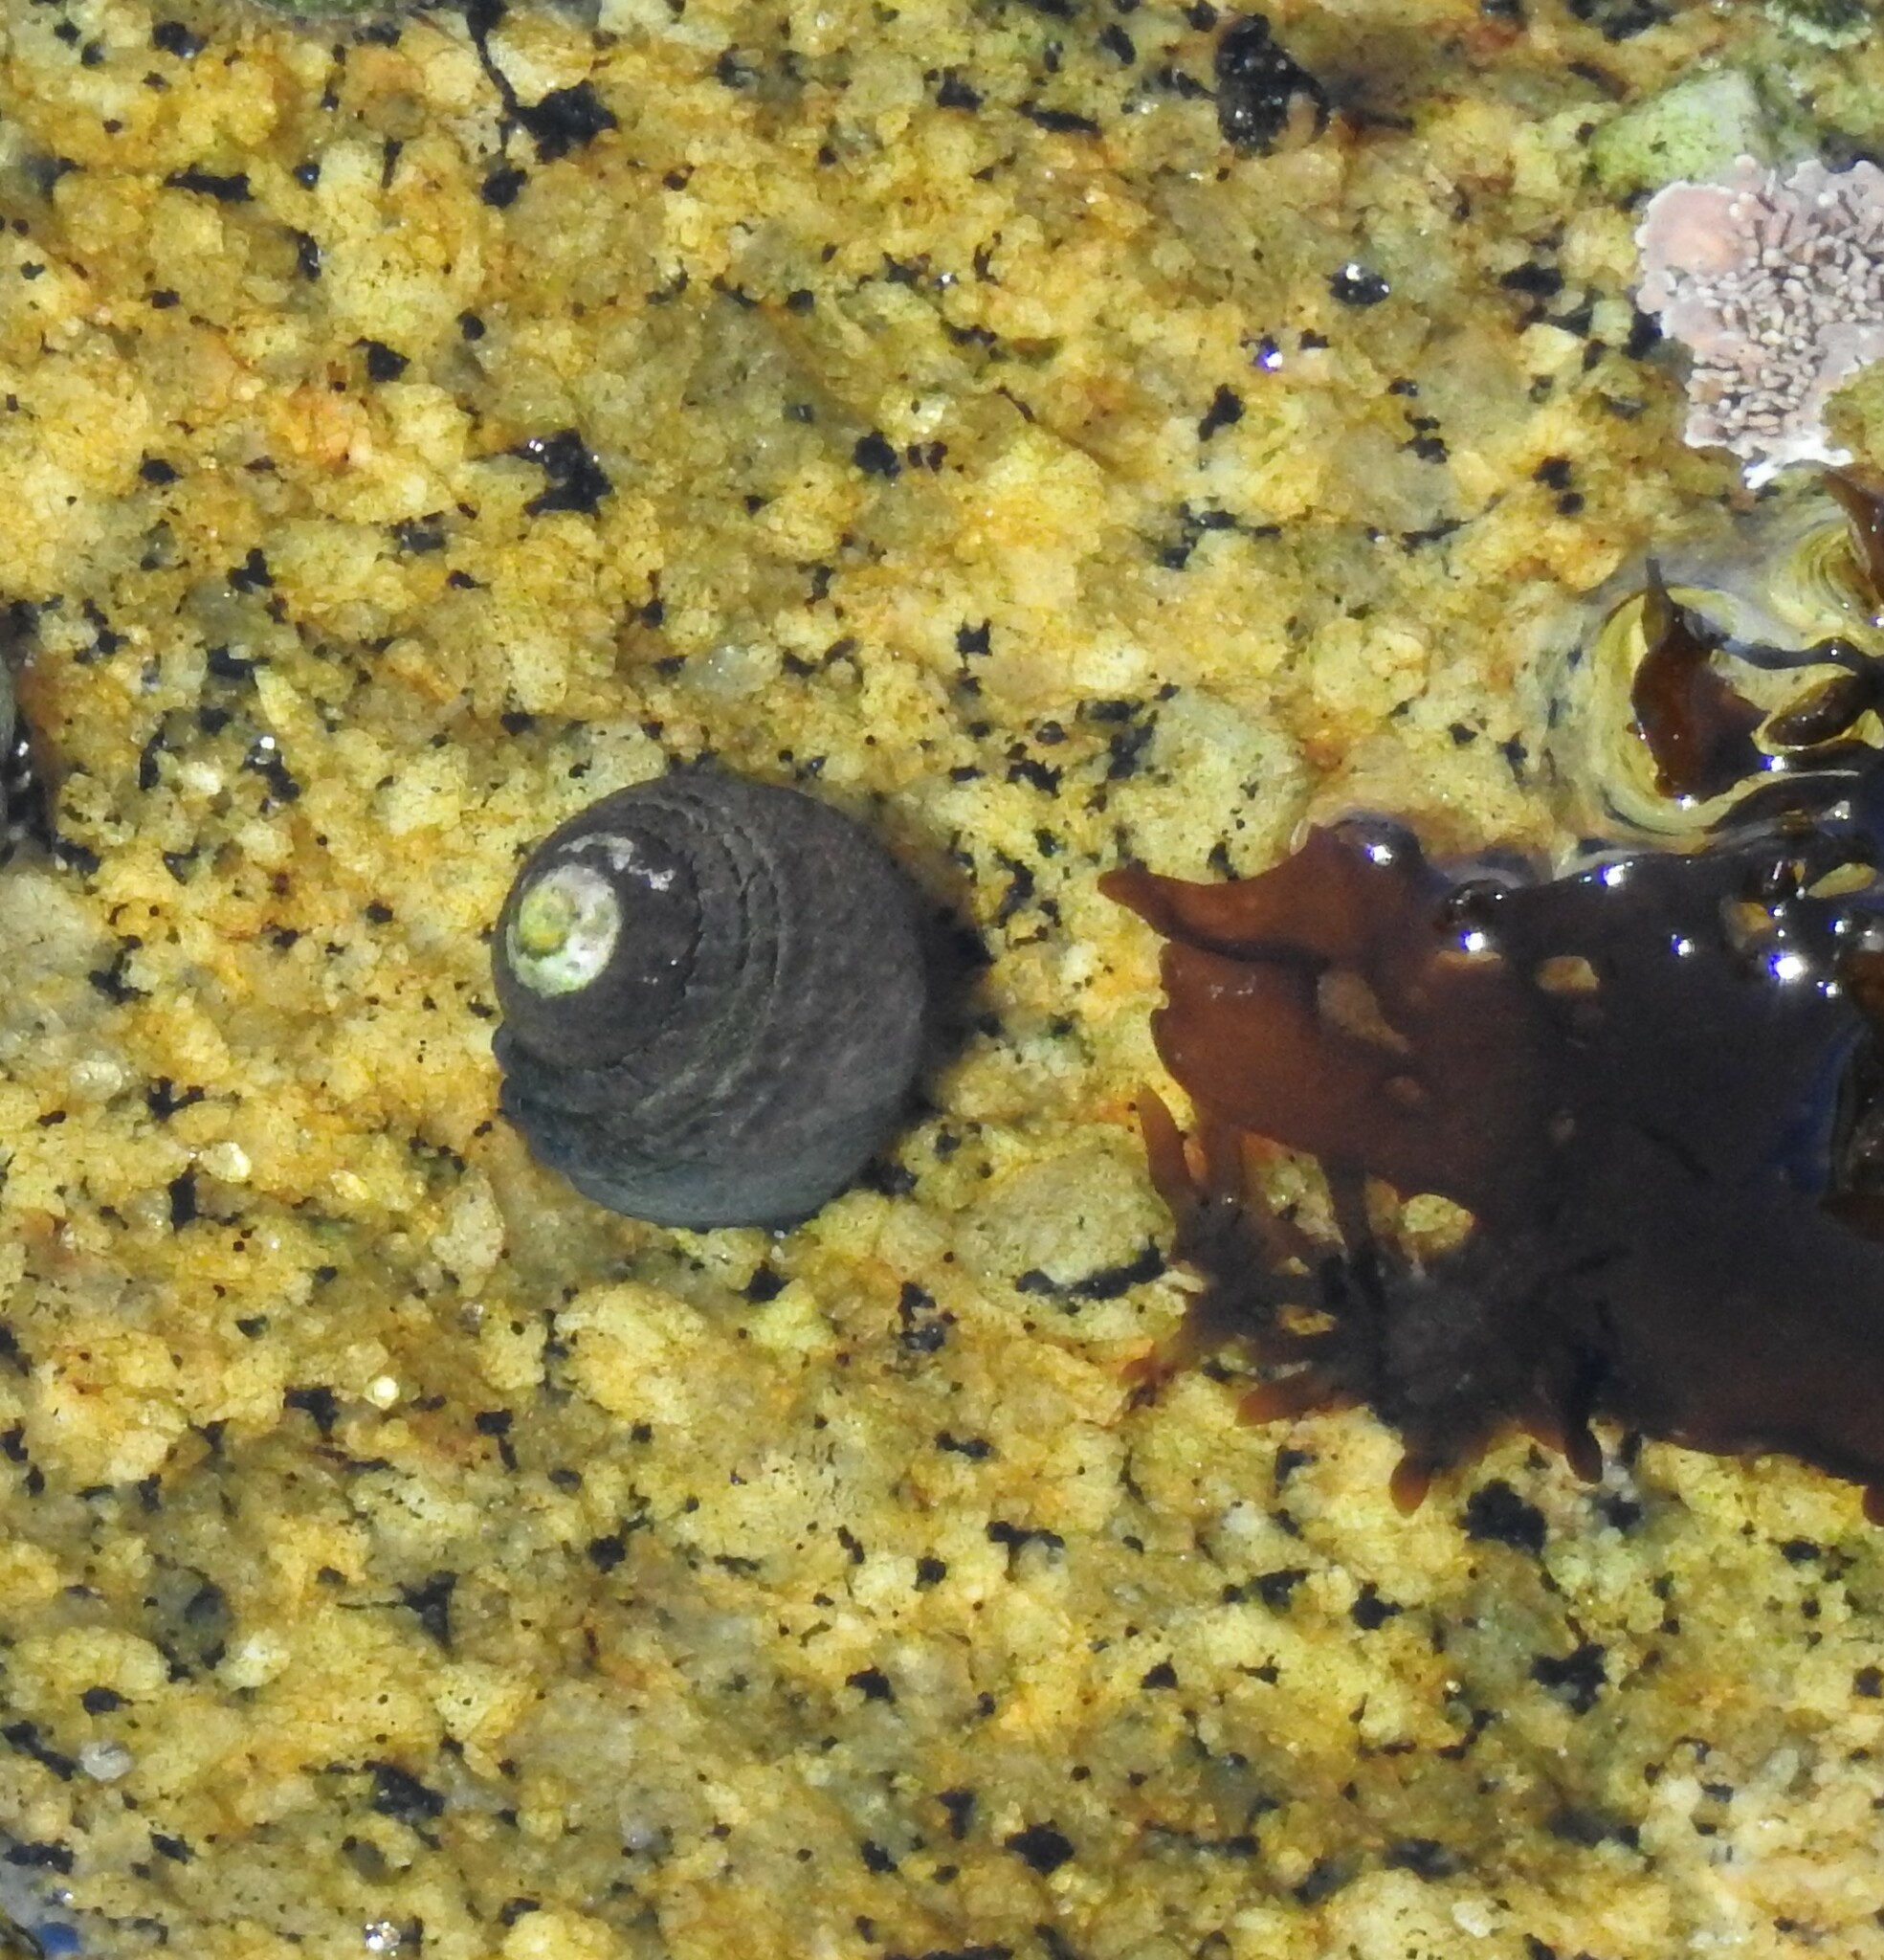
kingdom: Animalia
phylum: Mollusca
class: Gastropoda
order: Trochida
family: Tegulidae
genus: Tegula
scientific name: Tegula funebralis
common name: Black tegula
